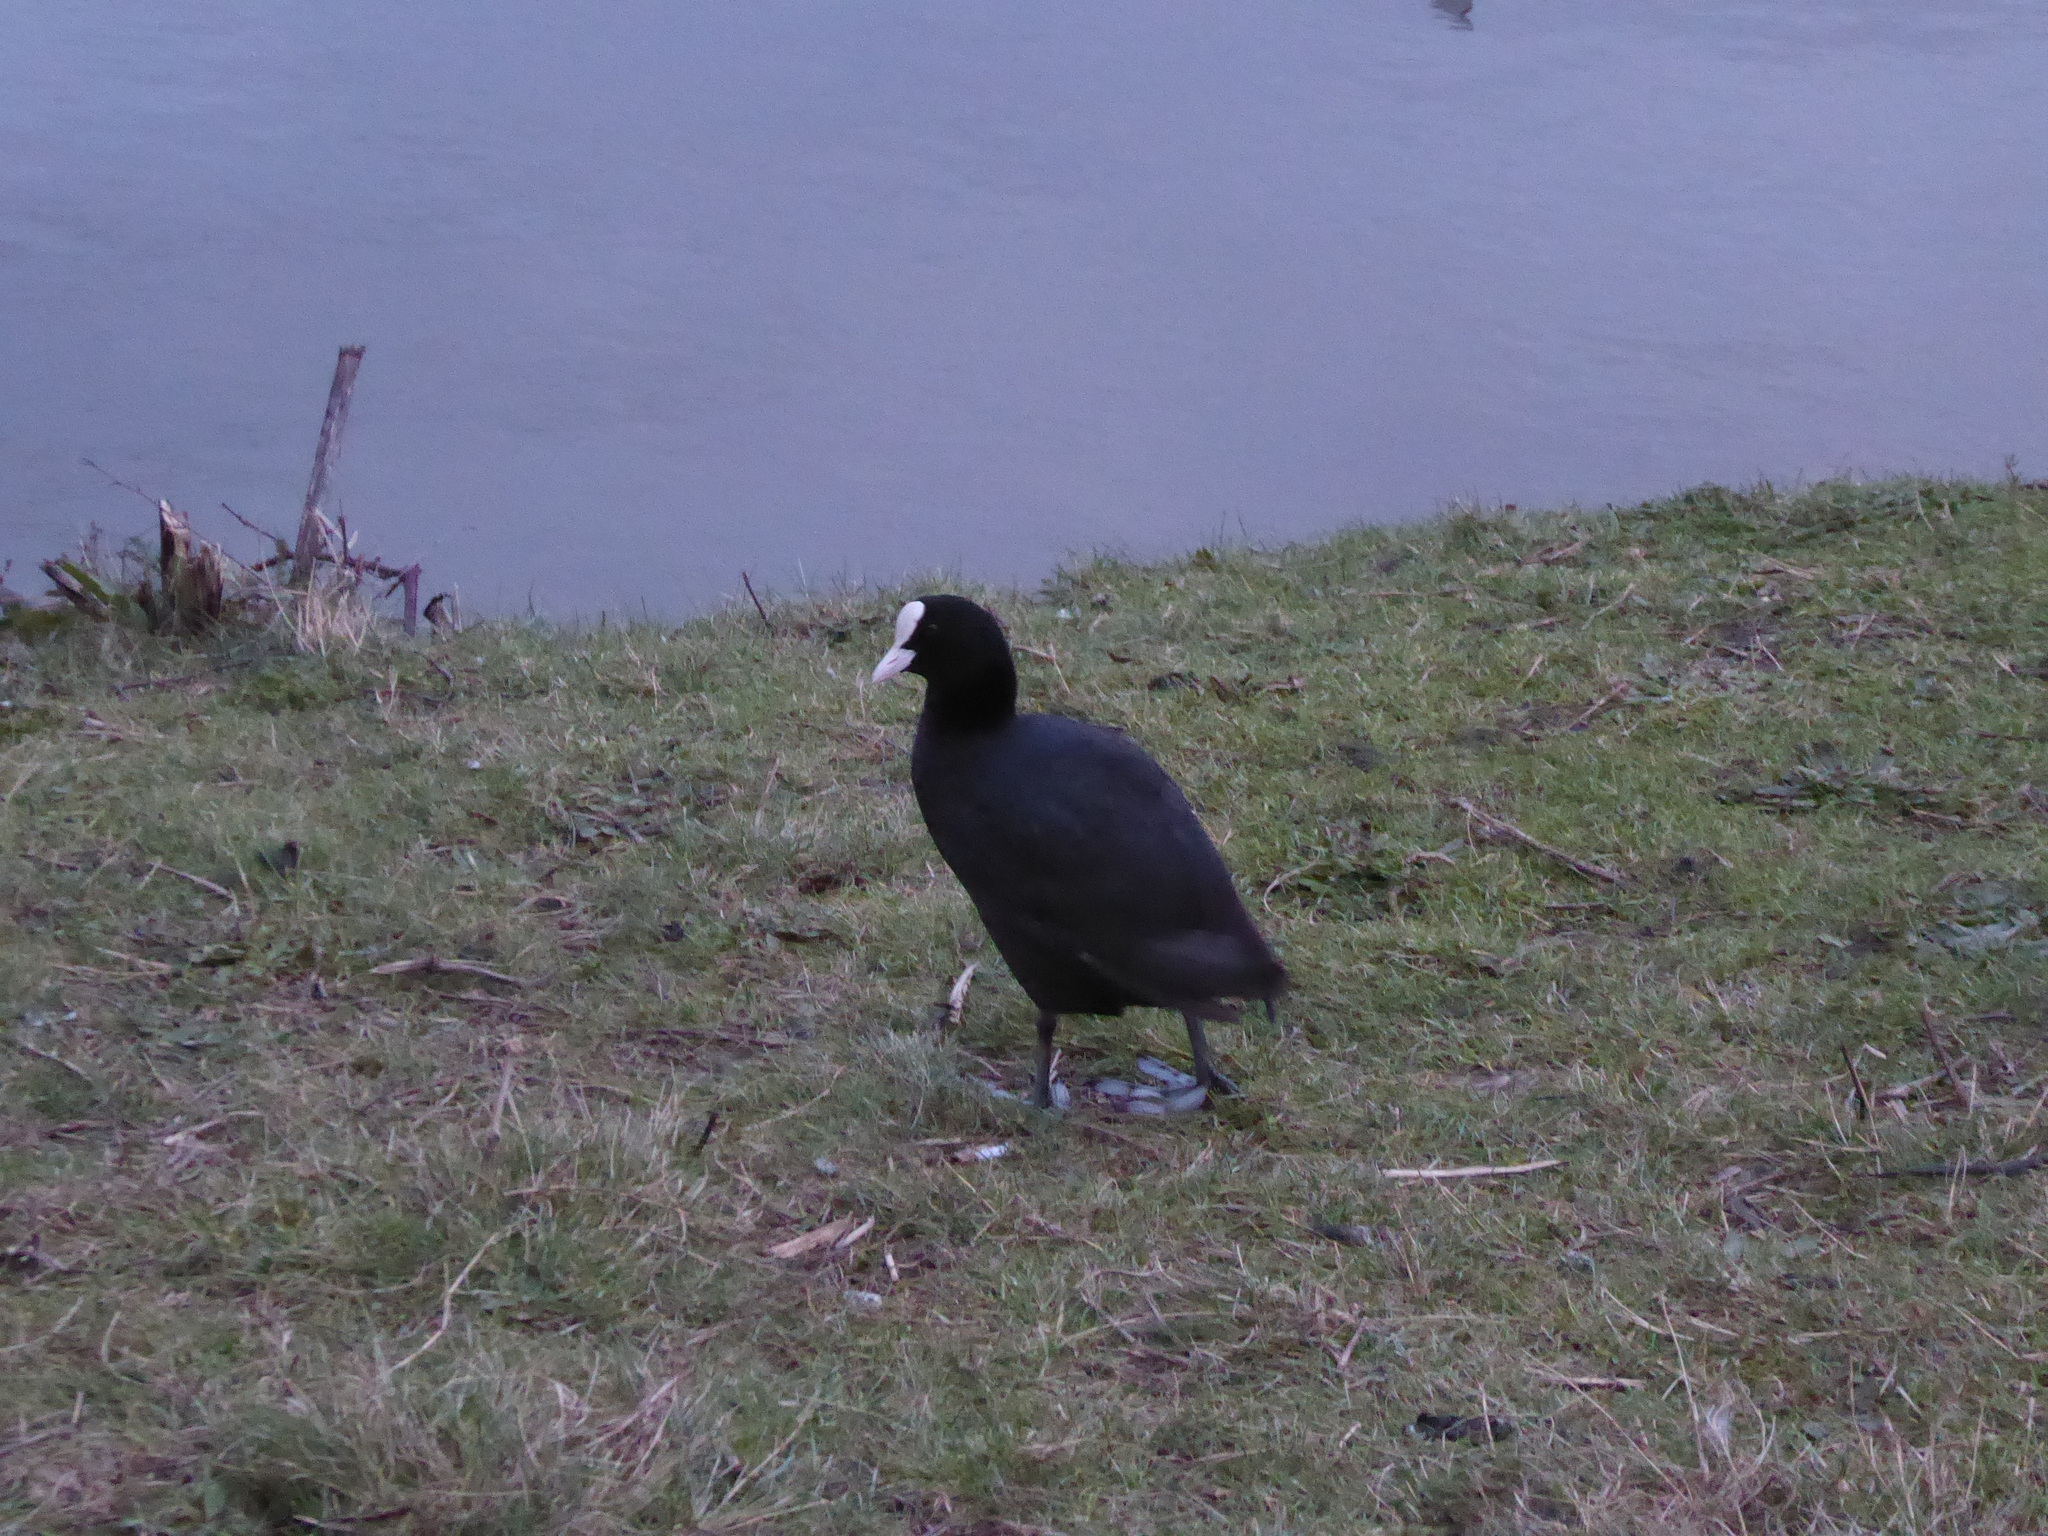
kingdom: Animalia
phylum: Chordata
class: Aves
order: Gruiformes
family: Rallidae
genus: Fulica
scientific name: Fulica atra
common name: Eurasian coot
